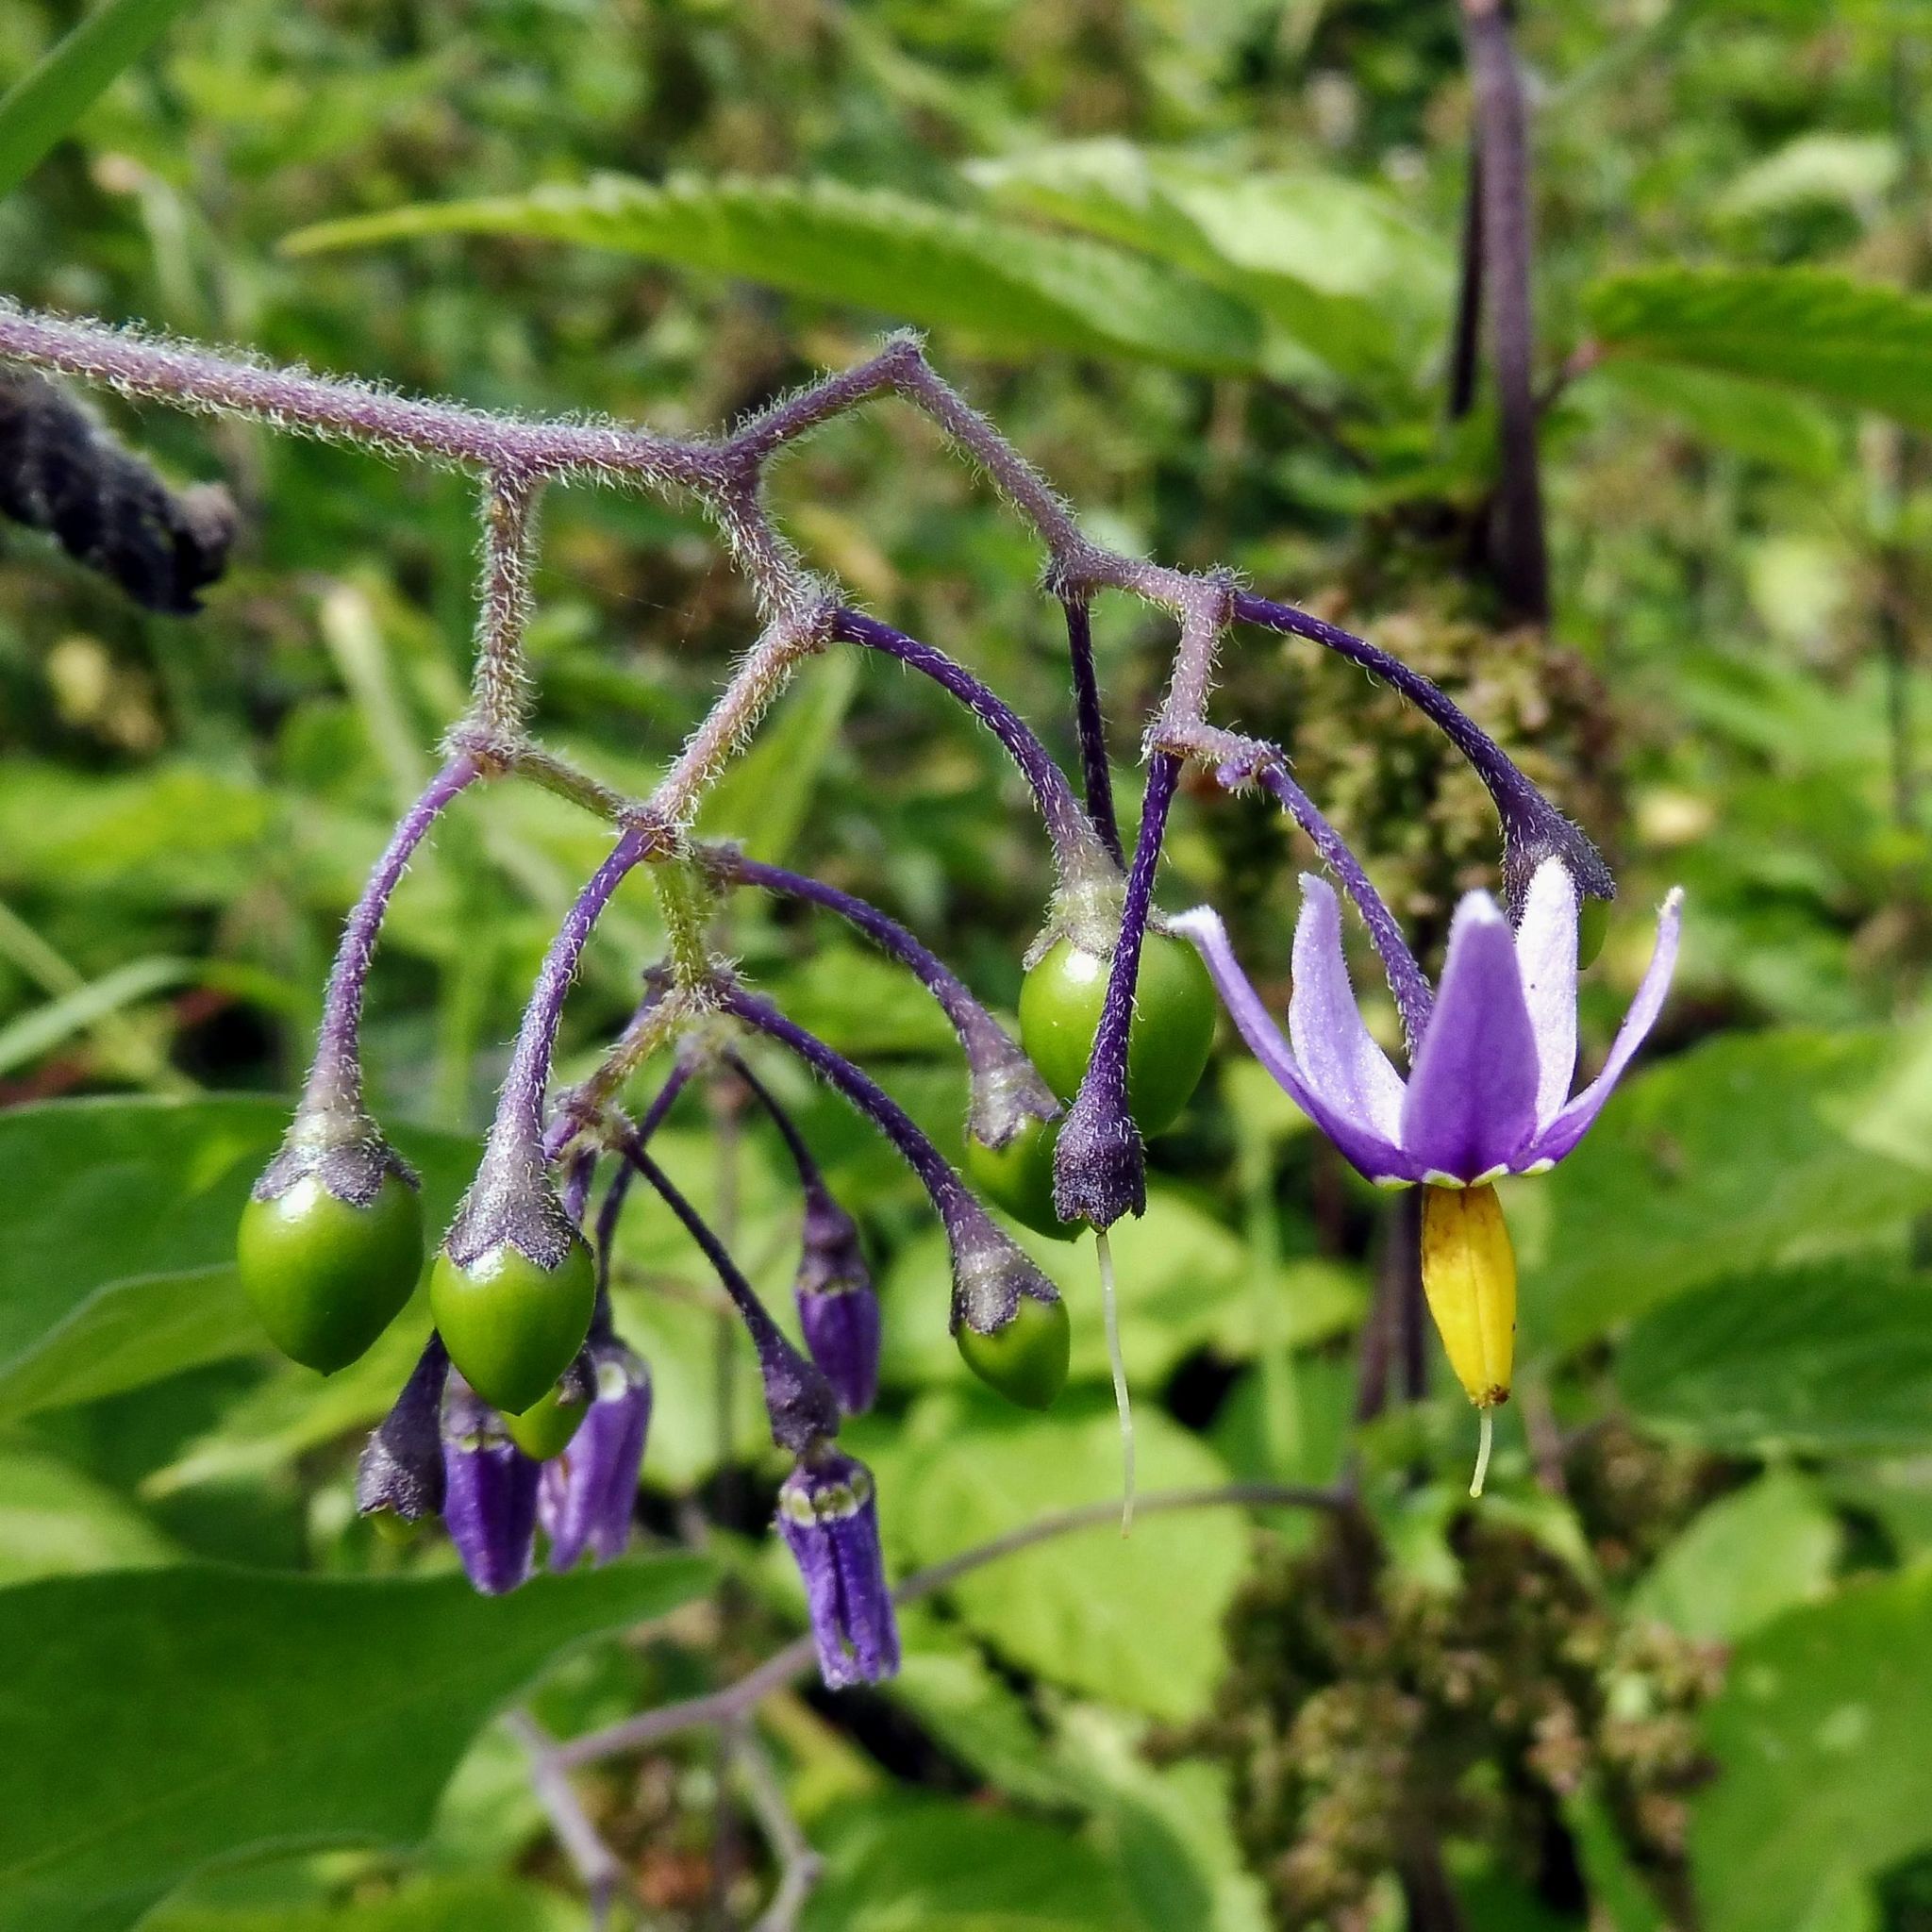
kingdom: Plantae
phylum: Tracheophyta
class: Magnoliopsida
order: Solanales
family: Solanaceae
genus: Solanum
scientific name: Solanum dulcamara
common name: Climbing nightshade
